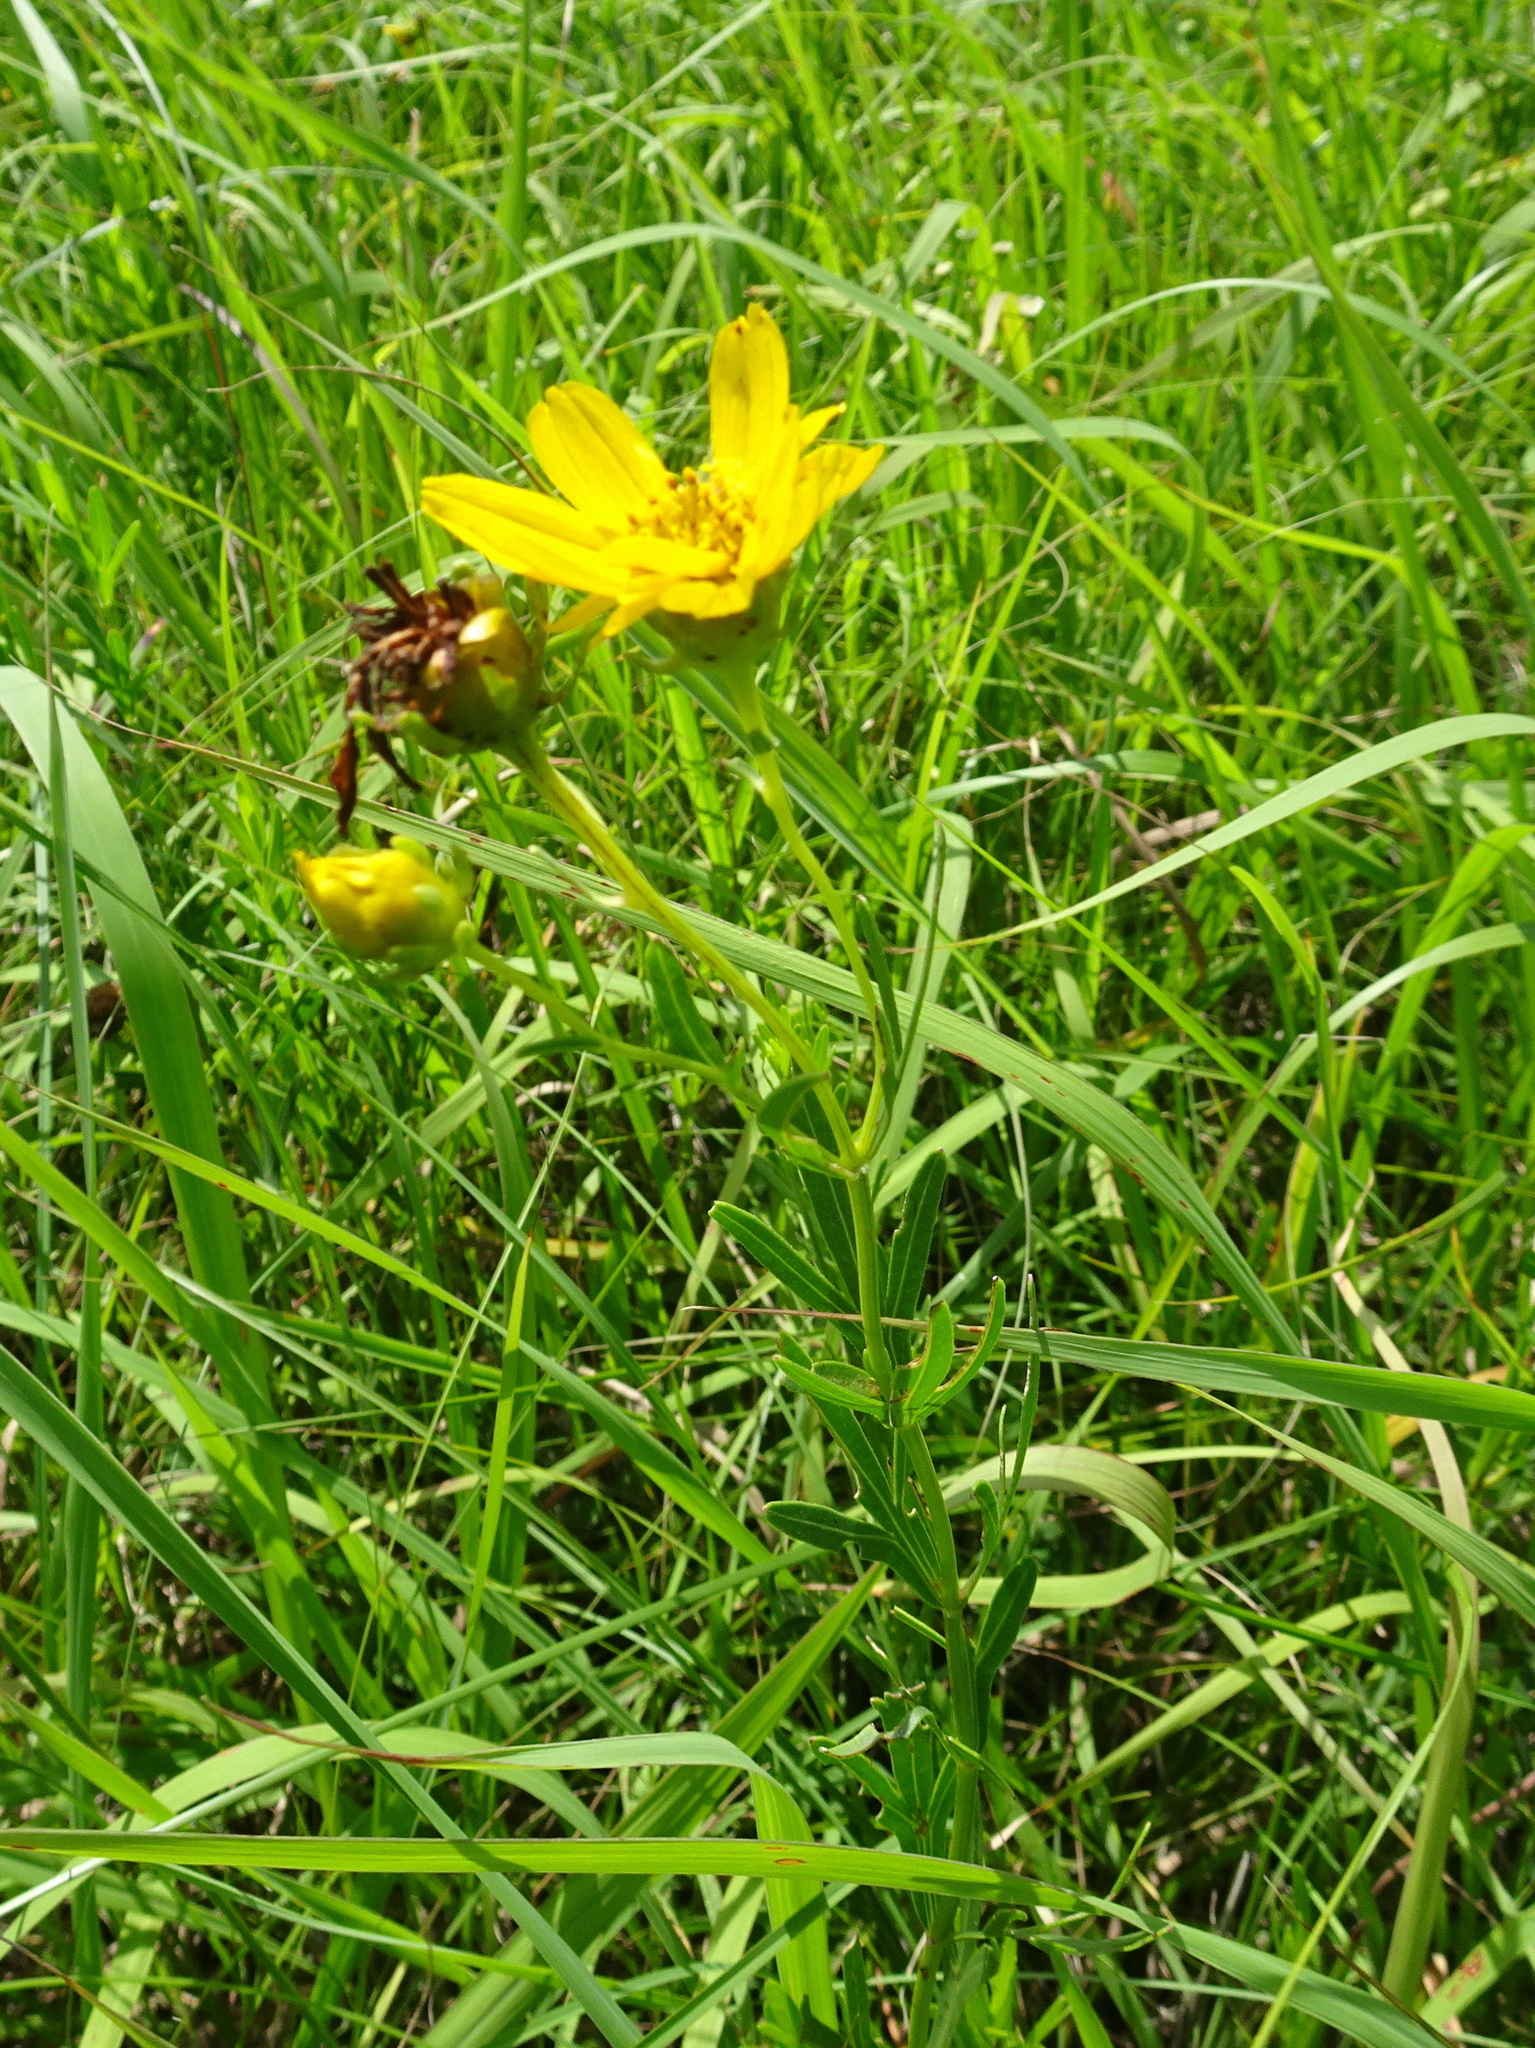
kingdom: Plantae
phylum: Tracheophyta
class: Magnoliopsida
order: Asterales
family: Asteraceae
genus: Coreopsis
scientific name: Coreopsis palmata
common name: Prairie coreopsis
